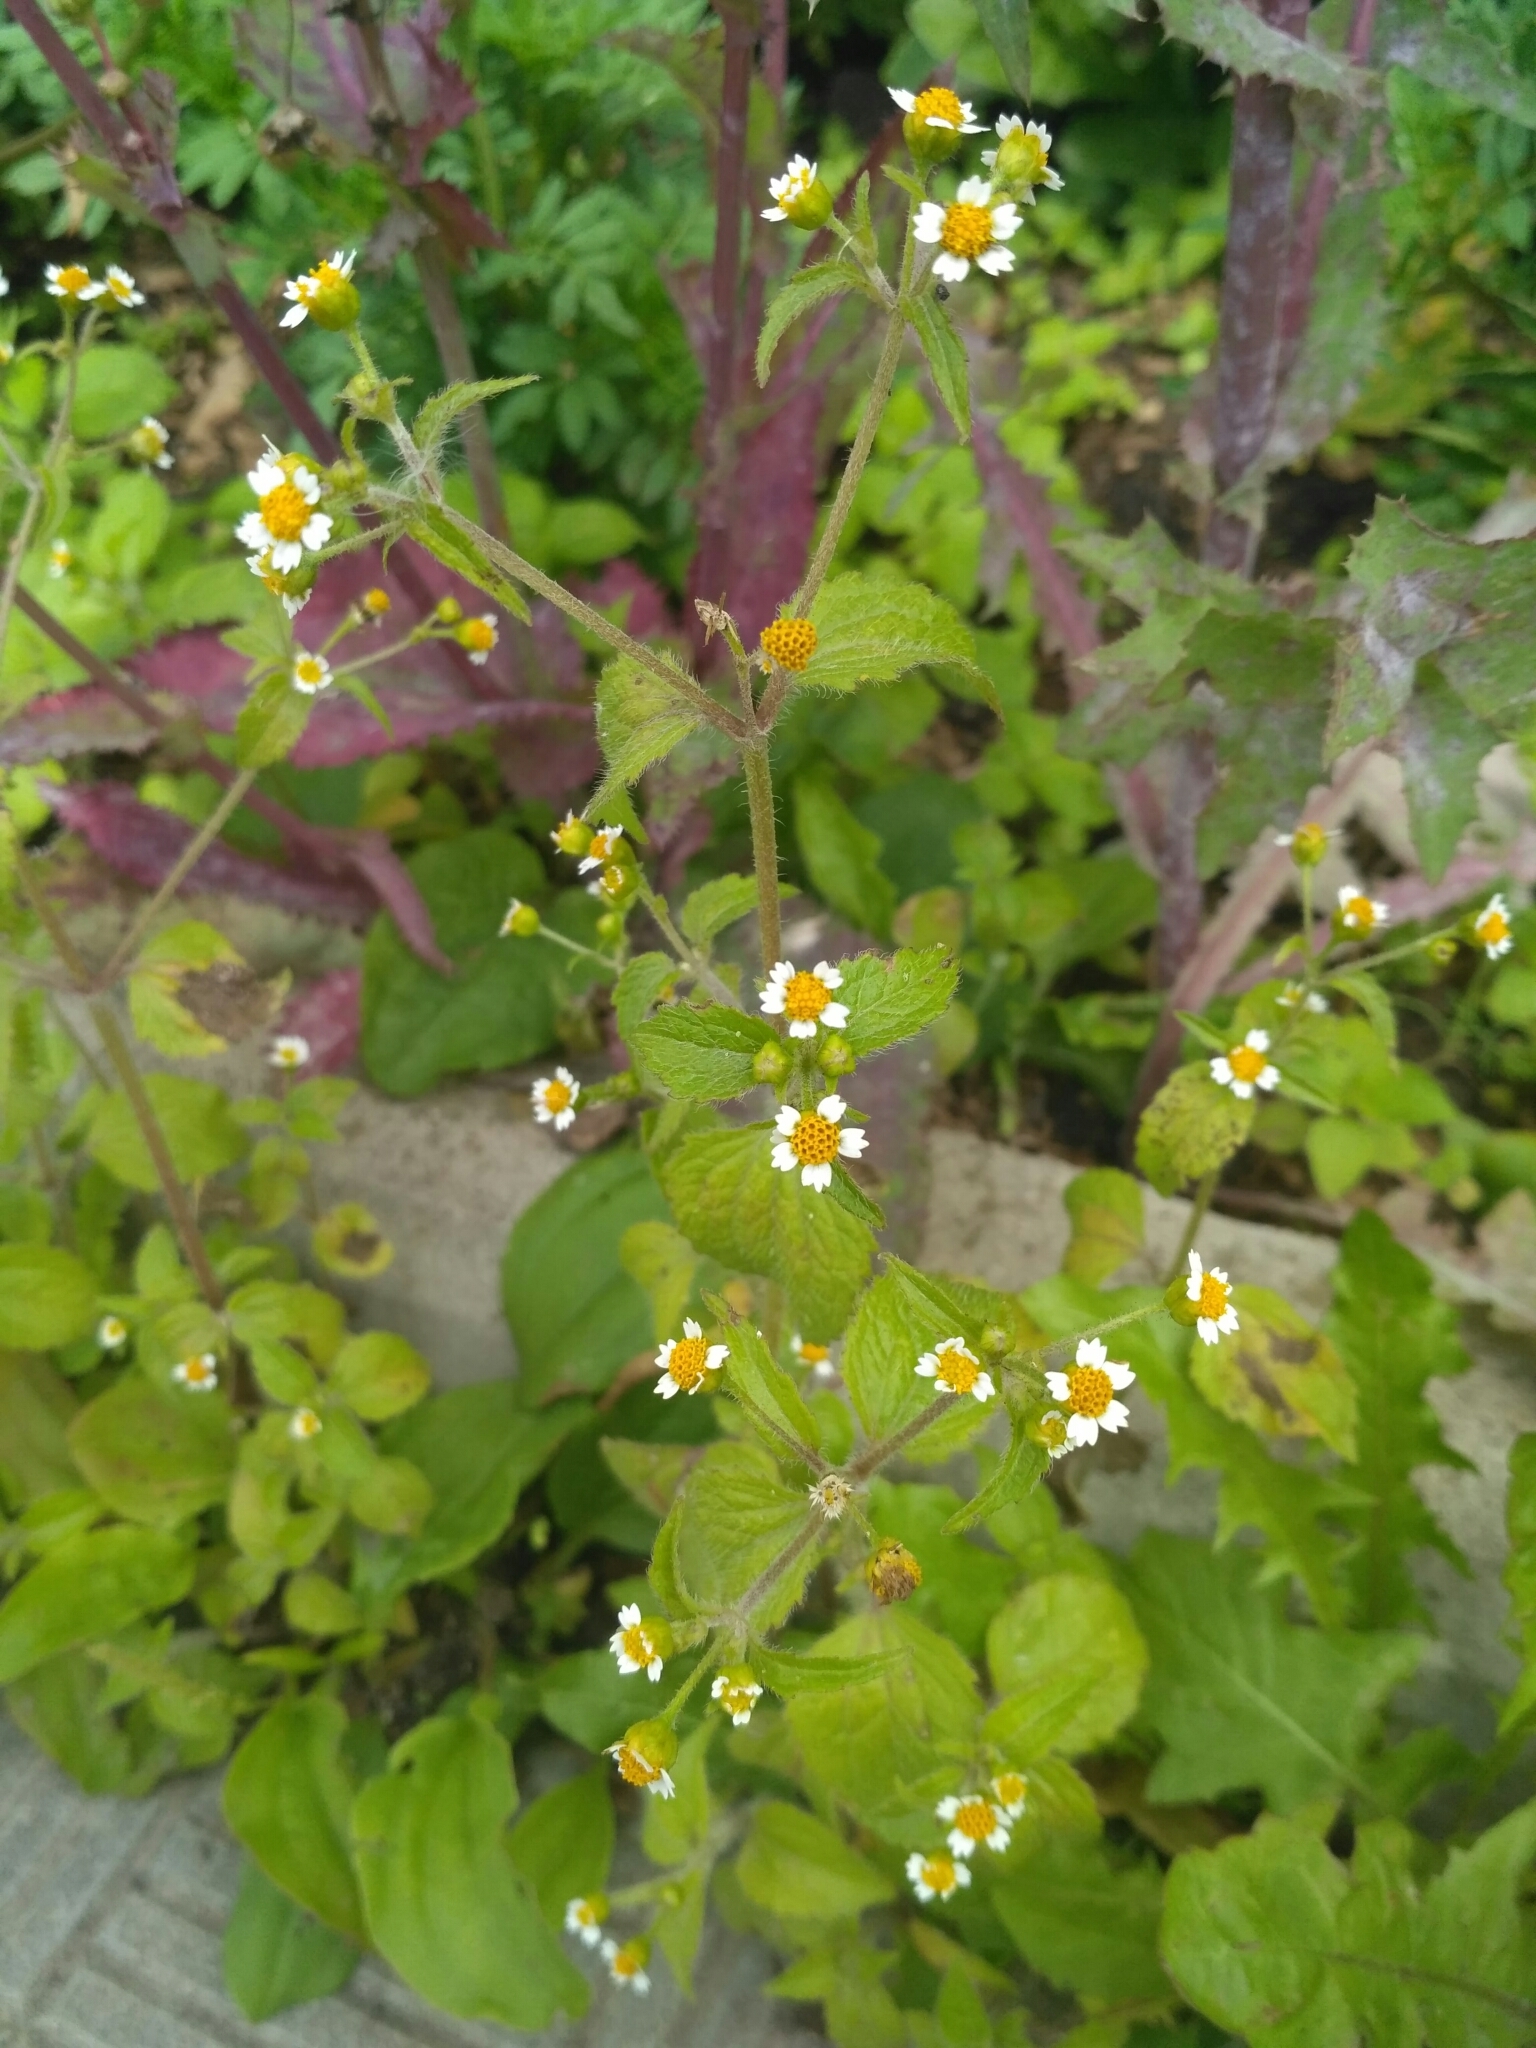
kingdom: Plantae
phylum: Tracheophyta
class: Magnoliopsida
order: Asterales
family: Asteraceae
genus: Galinsoga
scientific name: Galinsoga quadriradiata
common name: Shaggy soldier
